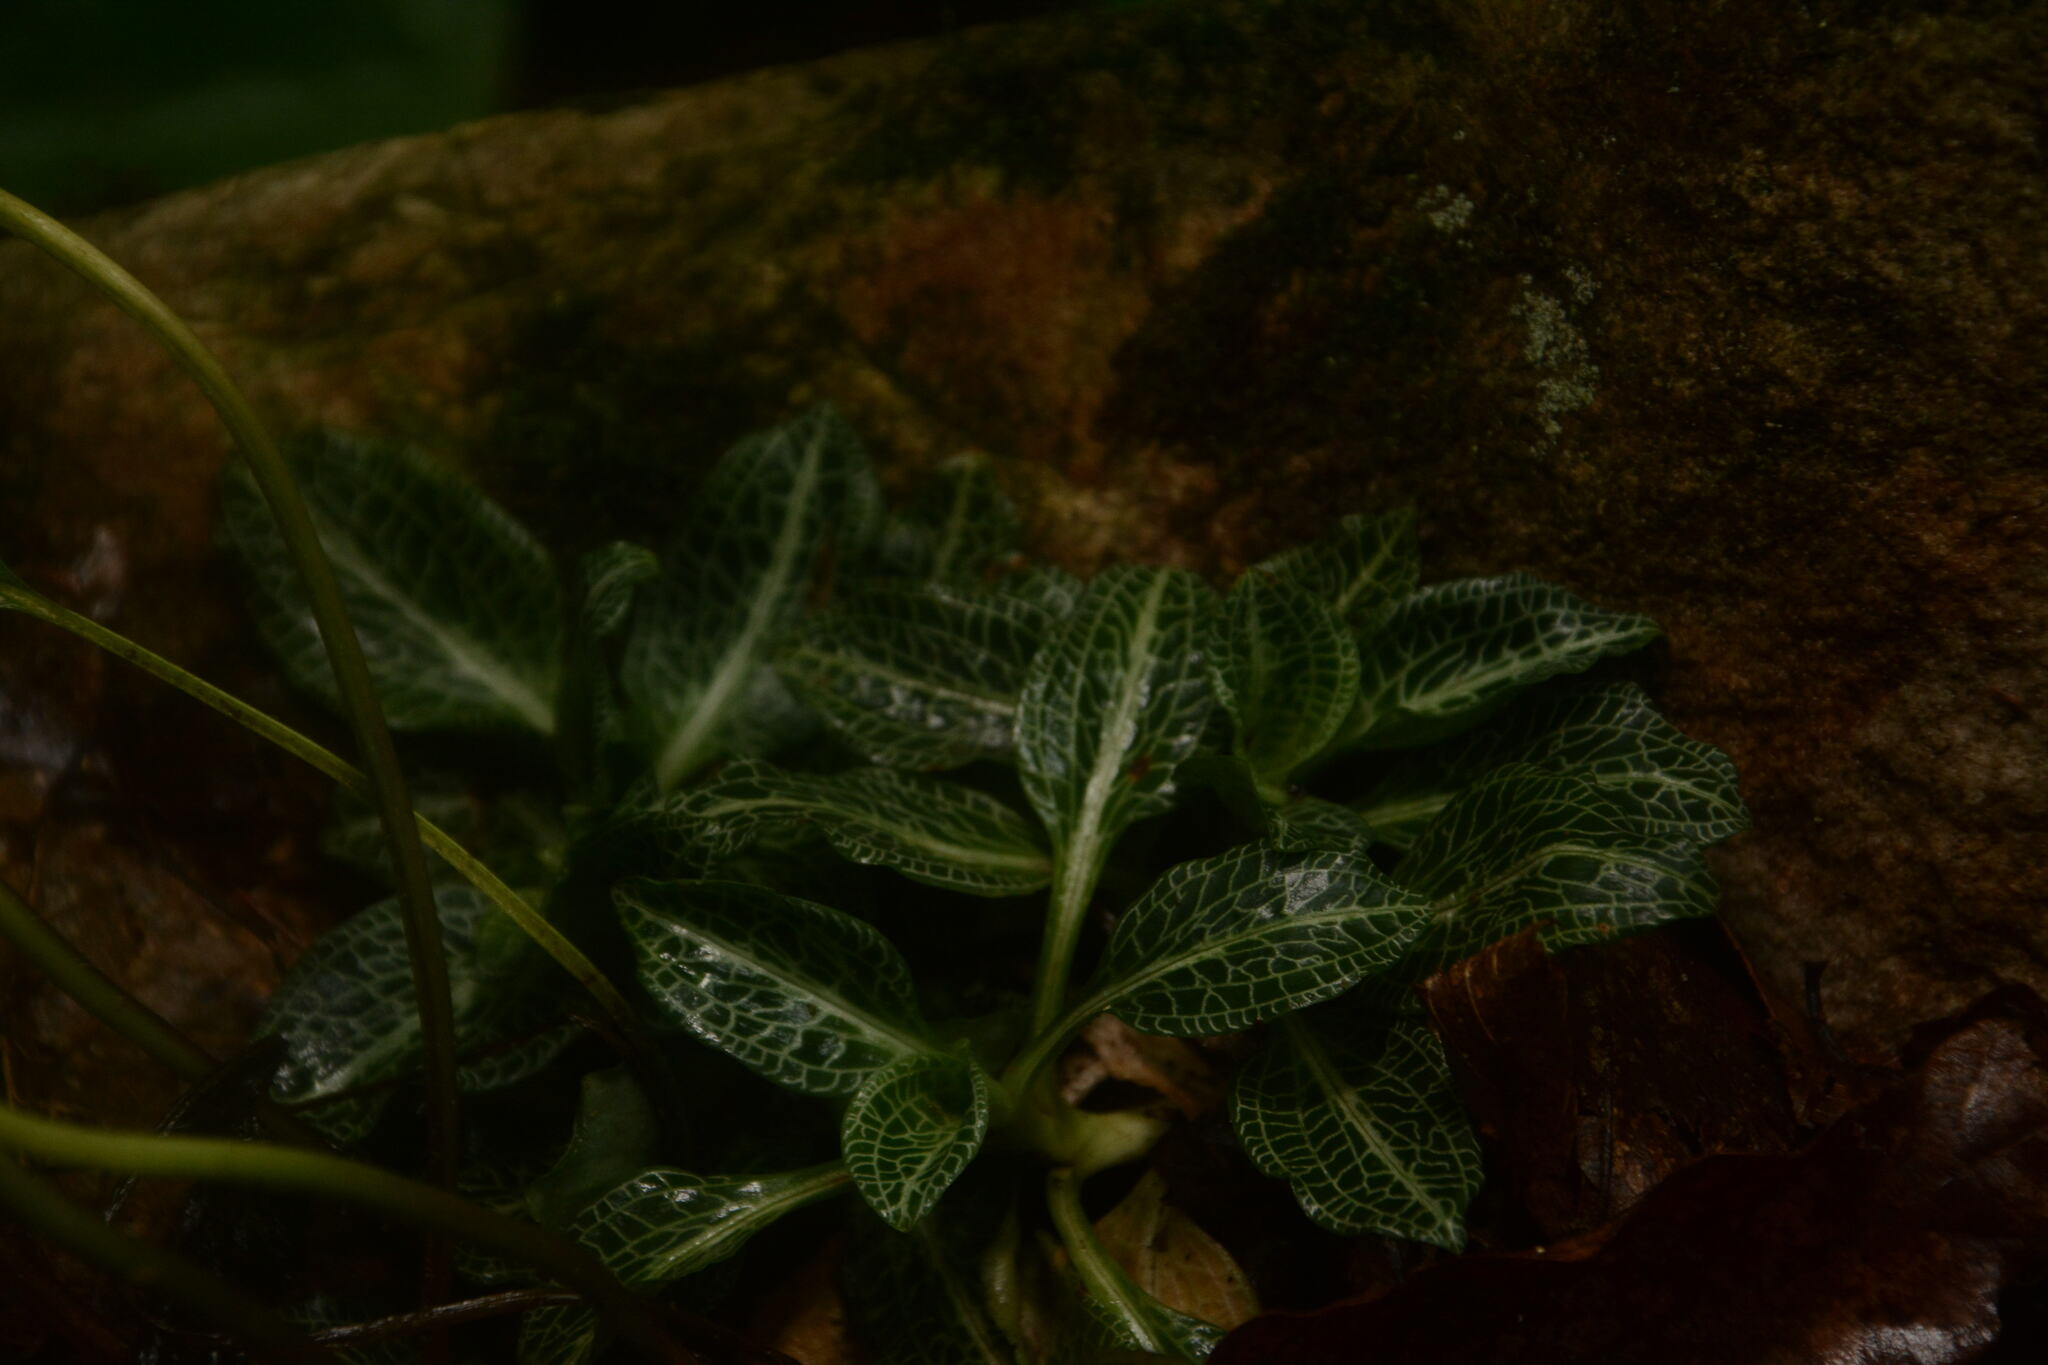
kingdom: Plantae
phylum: Tracheophyta
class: Liliopsida
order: Asparagales
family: Orchidaceae
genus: Goodyera
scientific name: Goodyera pubescens
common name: Downy rattlesnake-plantain
